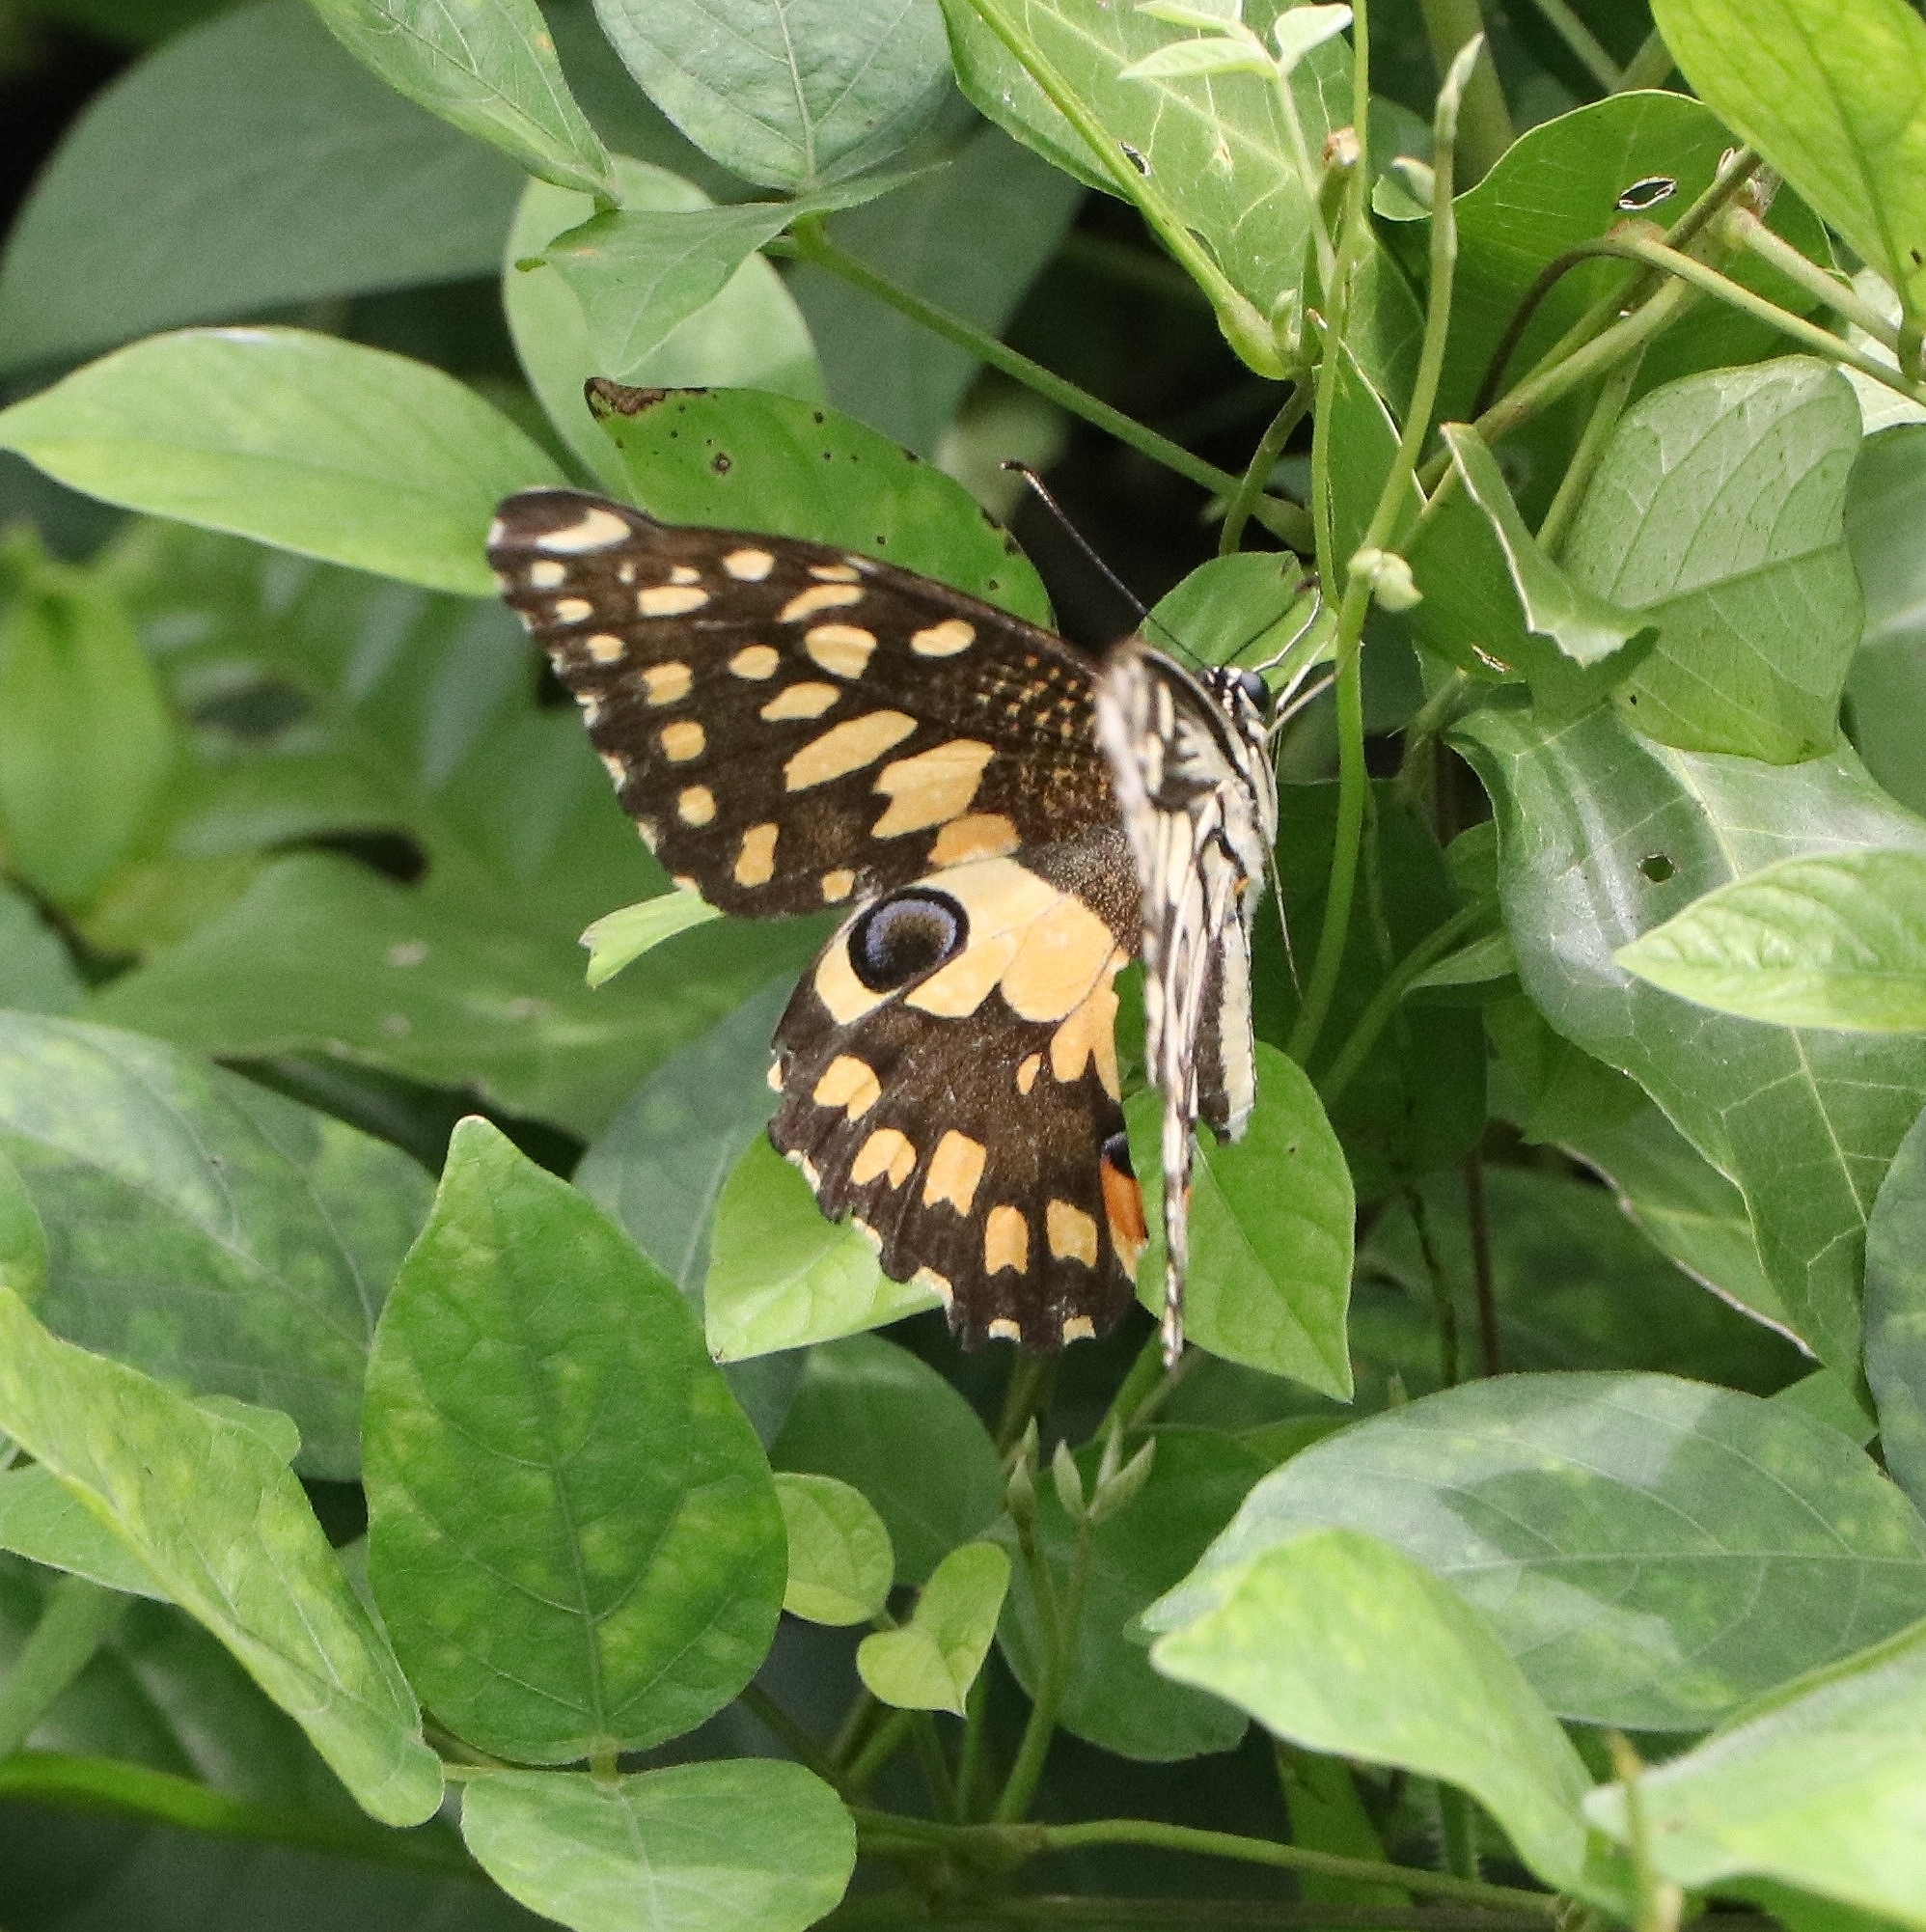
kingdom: Animalia
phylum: Arthropoda
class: Insecta
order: Lepidoptera
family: Papilionidae
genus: Papilio
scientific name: Papilio demoleus
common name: Lime butterfly
